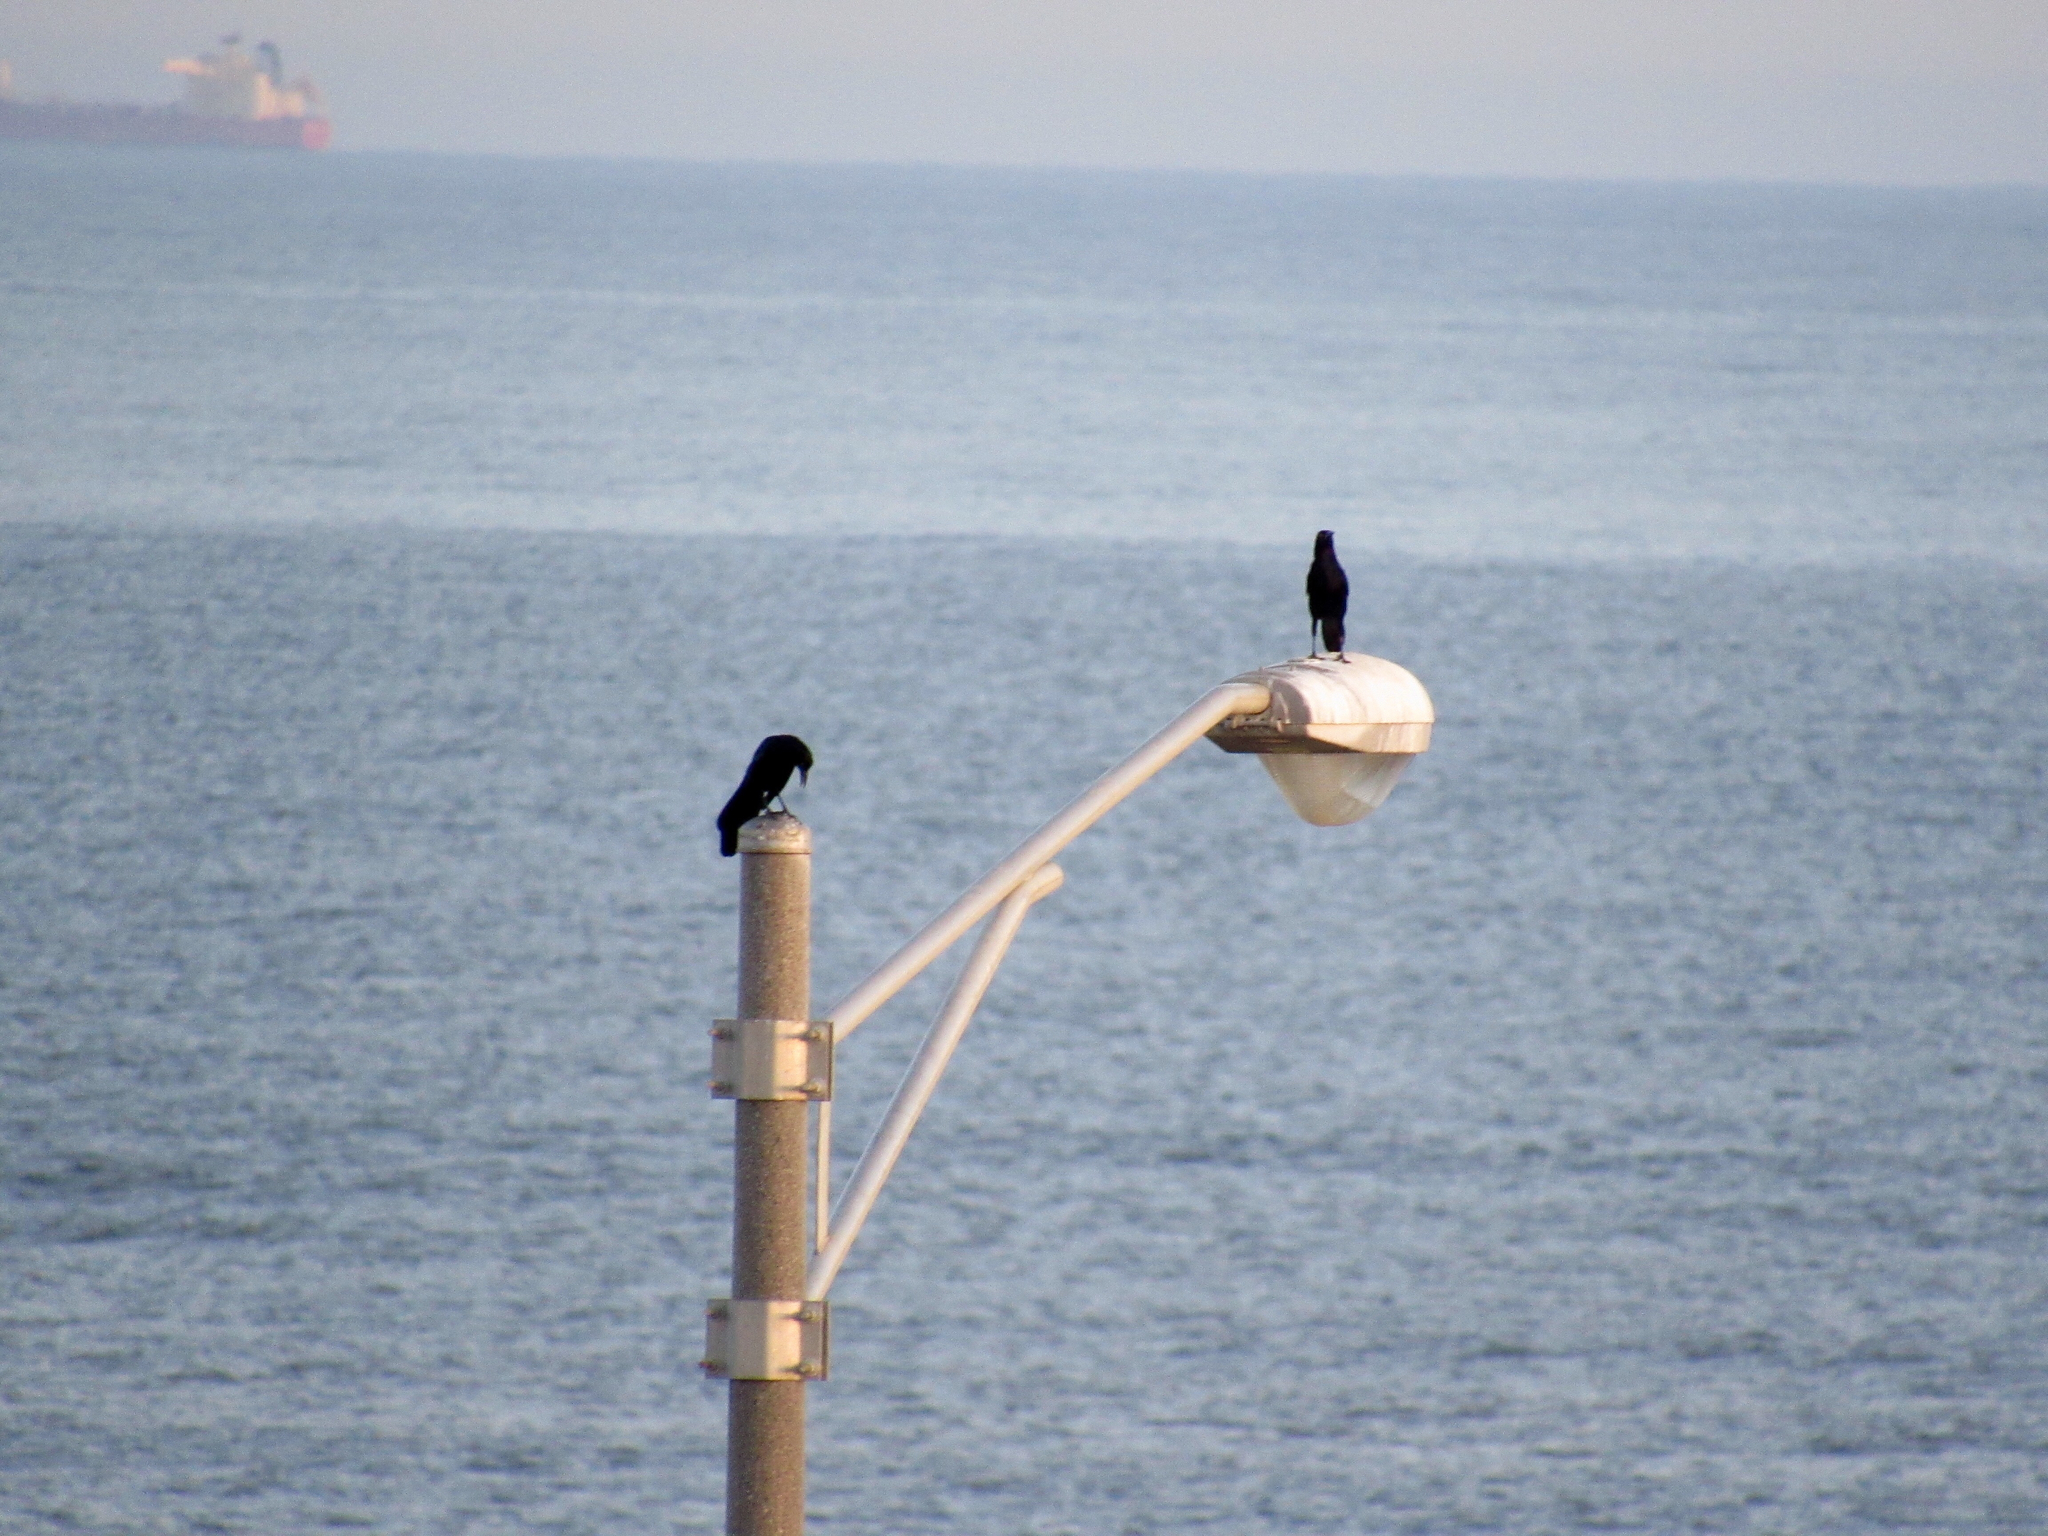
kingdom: Animalia
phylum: Chordata
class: Aves
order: Passeriformes
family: Icteridae
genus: Quiscalus
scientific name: Quiscalus mexicanus
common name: Great-tailed grackle
